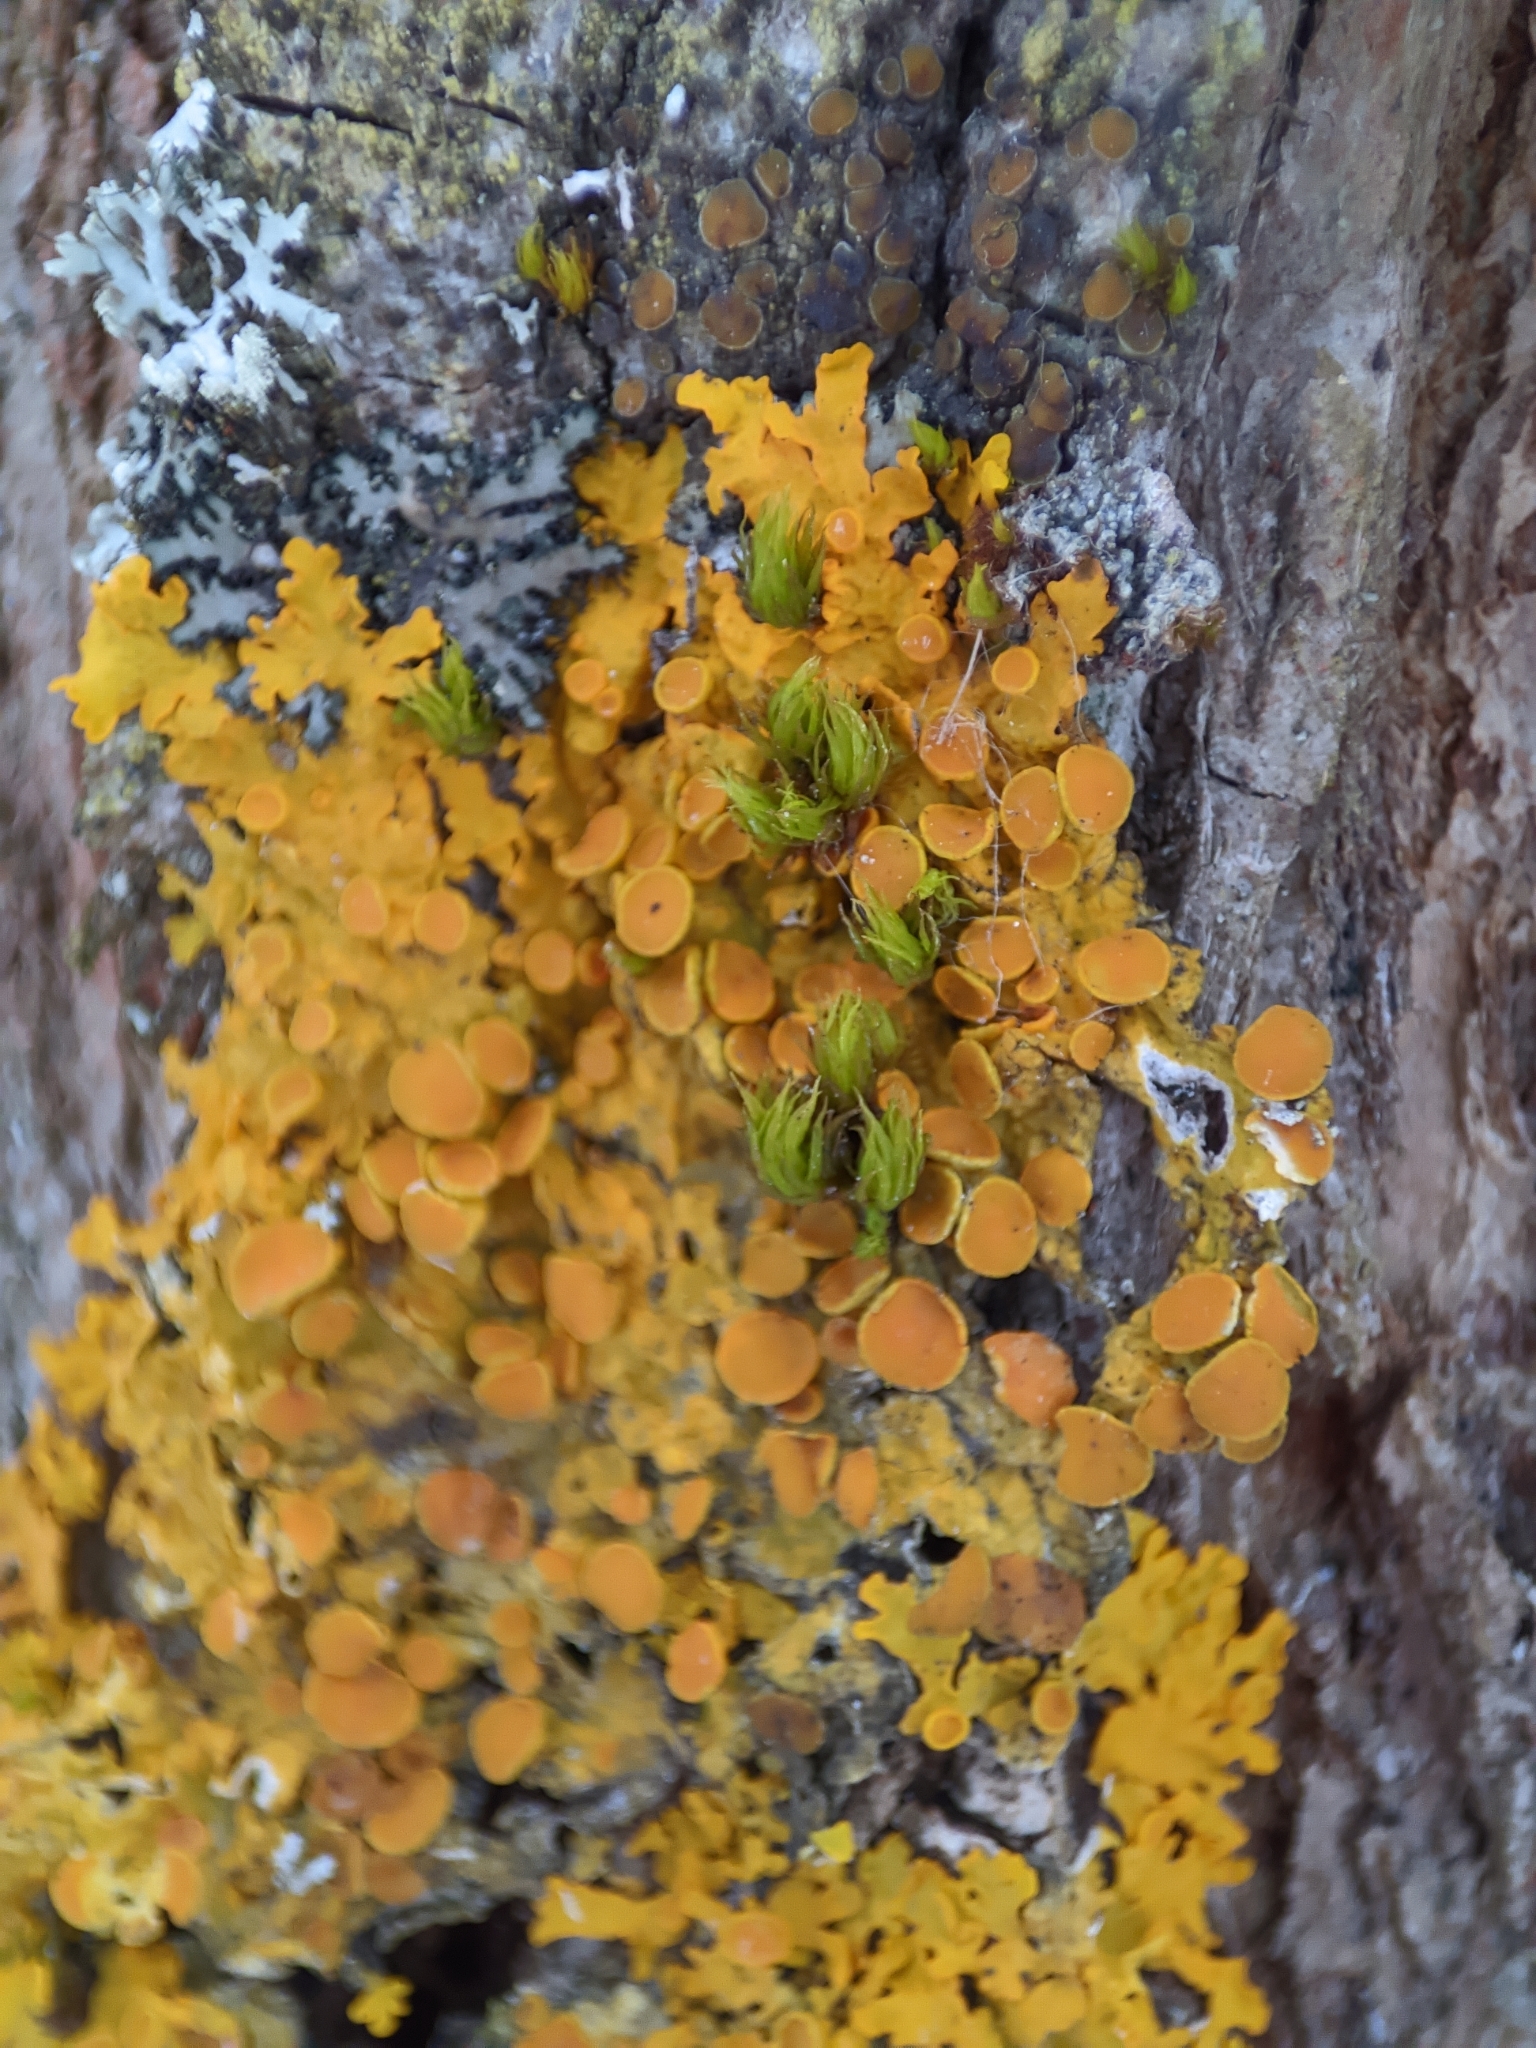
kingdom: Fungi
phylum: Ascomycota
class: Lecanoromycetes
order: Teloschistales
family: Teloschistaceae
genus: Xanthoria
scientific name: Xanthoria parietina
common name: Common orange lichen
